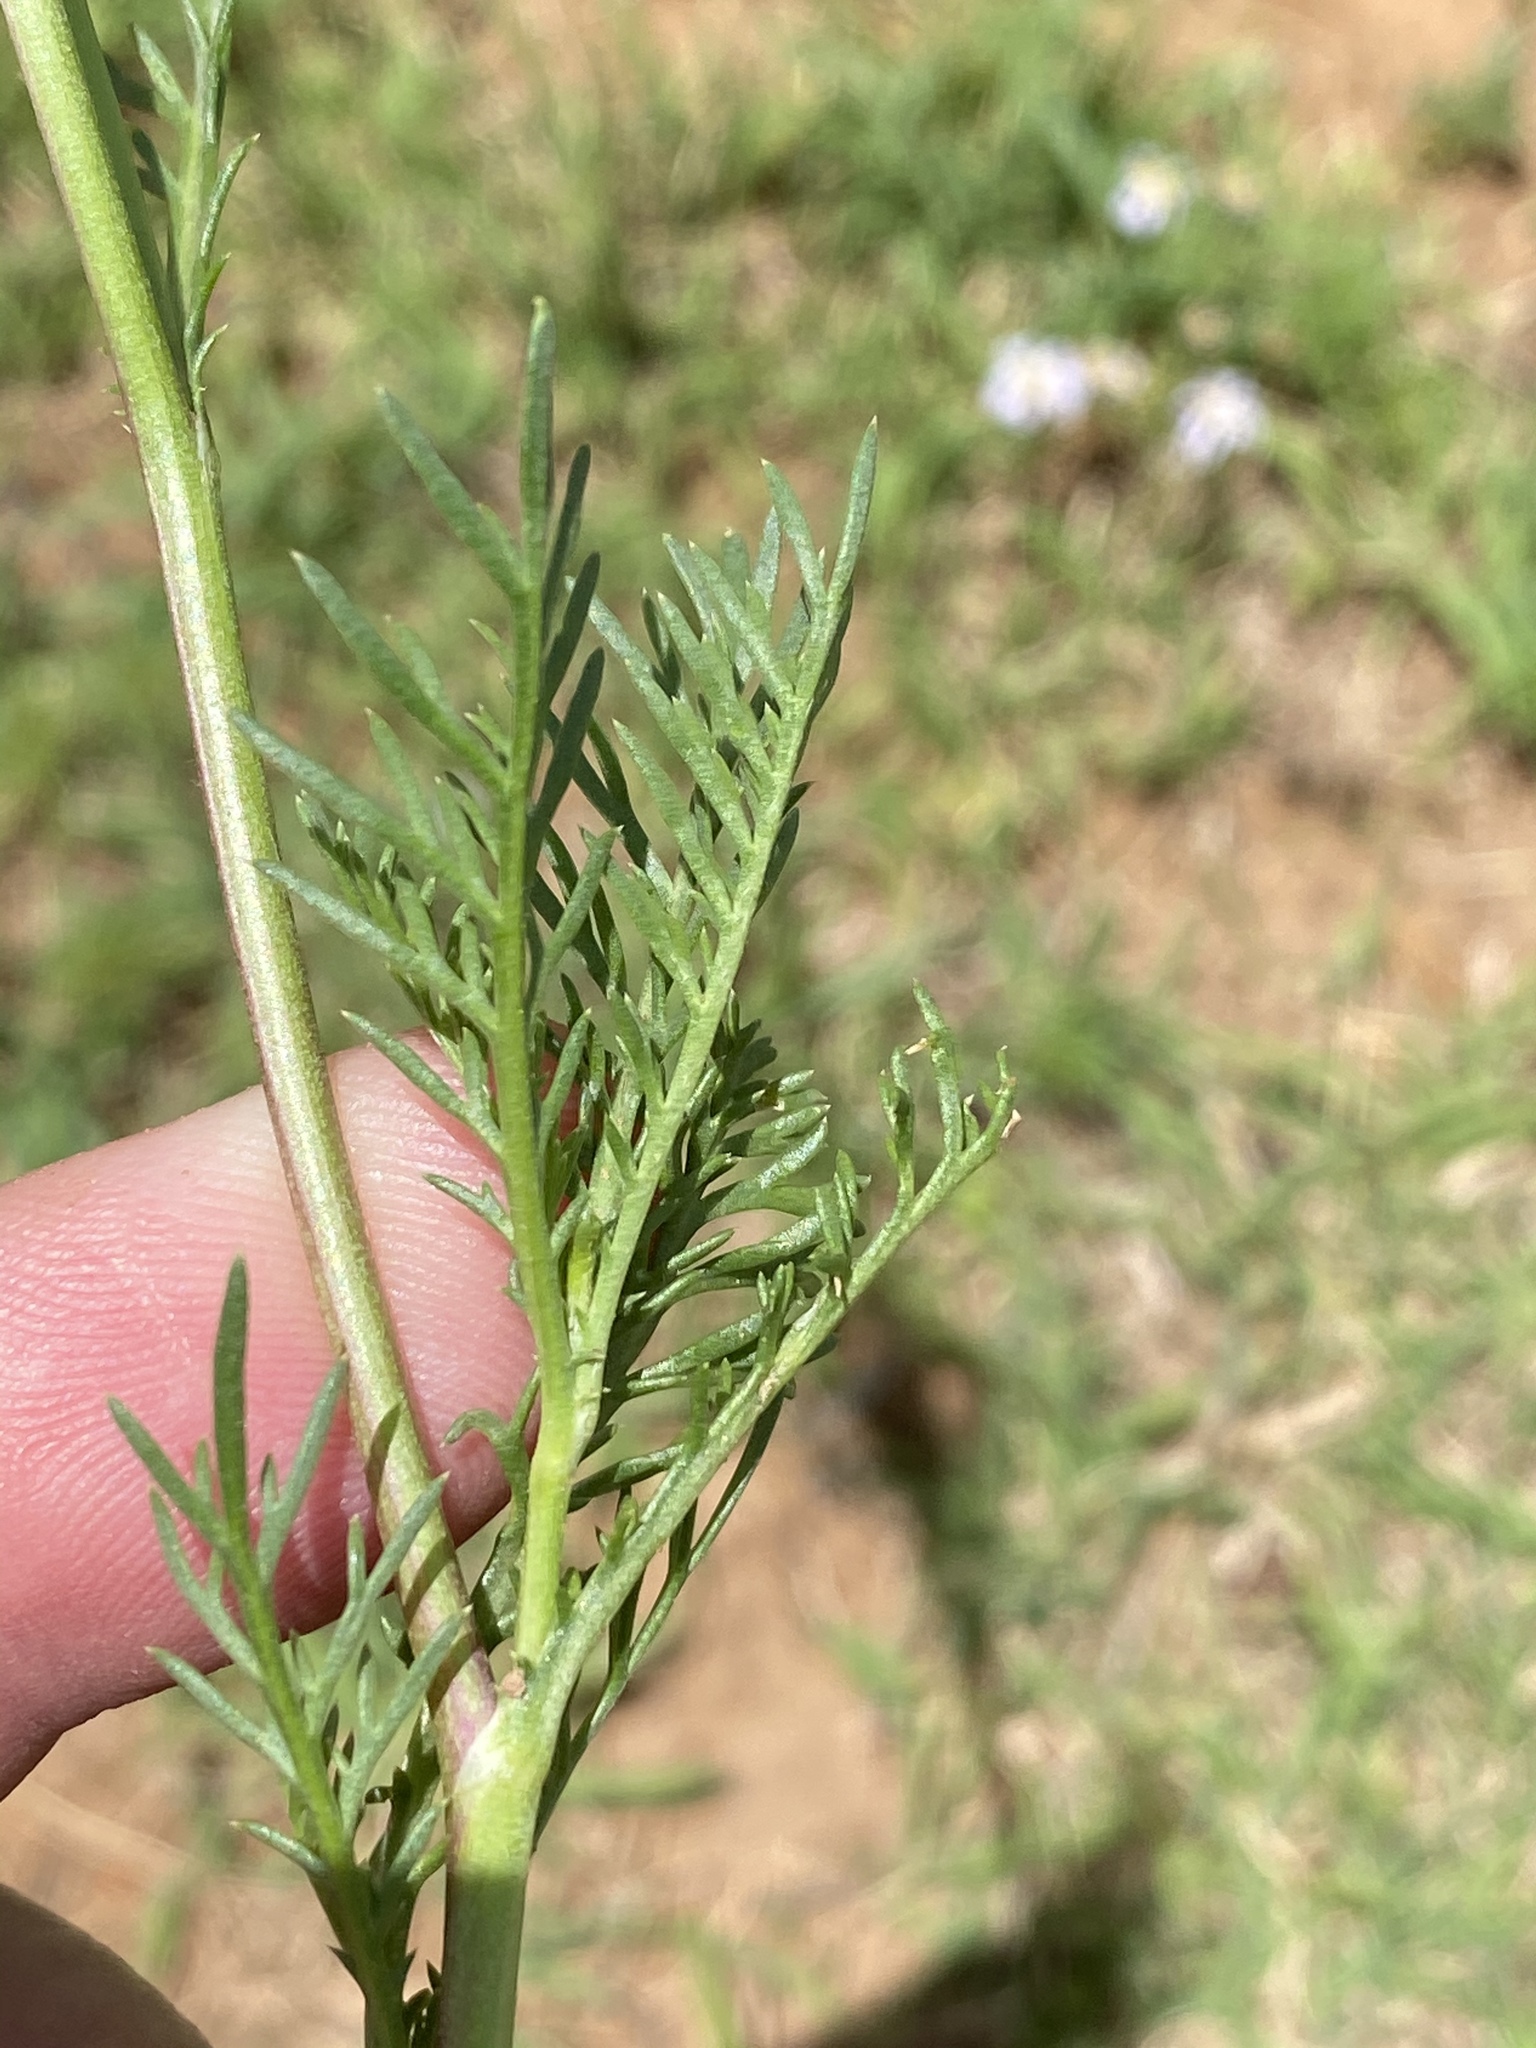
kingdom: Plantae
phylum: Tracheophyta
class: Magnoliopsida
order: Asterales
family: Asteraceae
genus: Garuleum
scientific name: Garuleum bipinnatum
